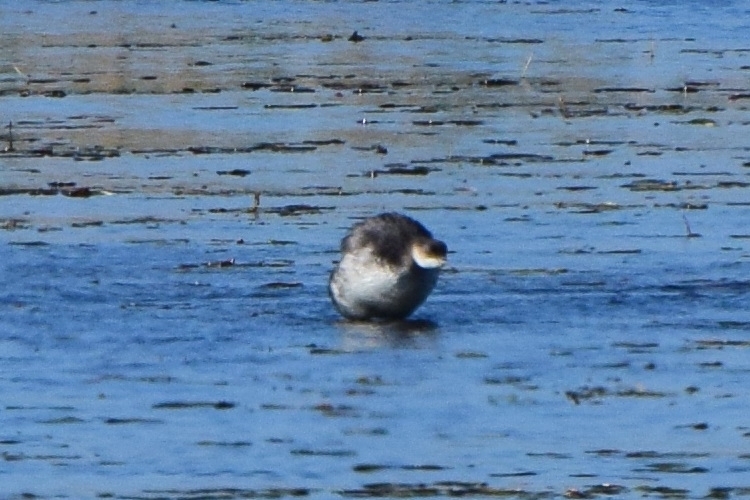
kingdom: Animalia
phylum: Chordata
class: Aves
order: Podicipediformes
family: Podicipedidae
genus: Podiceps
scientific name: Podiceps nigricollis
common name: Black-necked grebe
